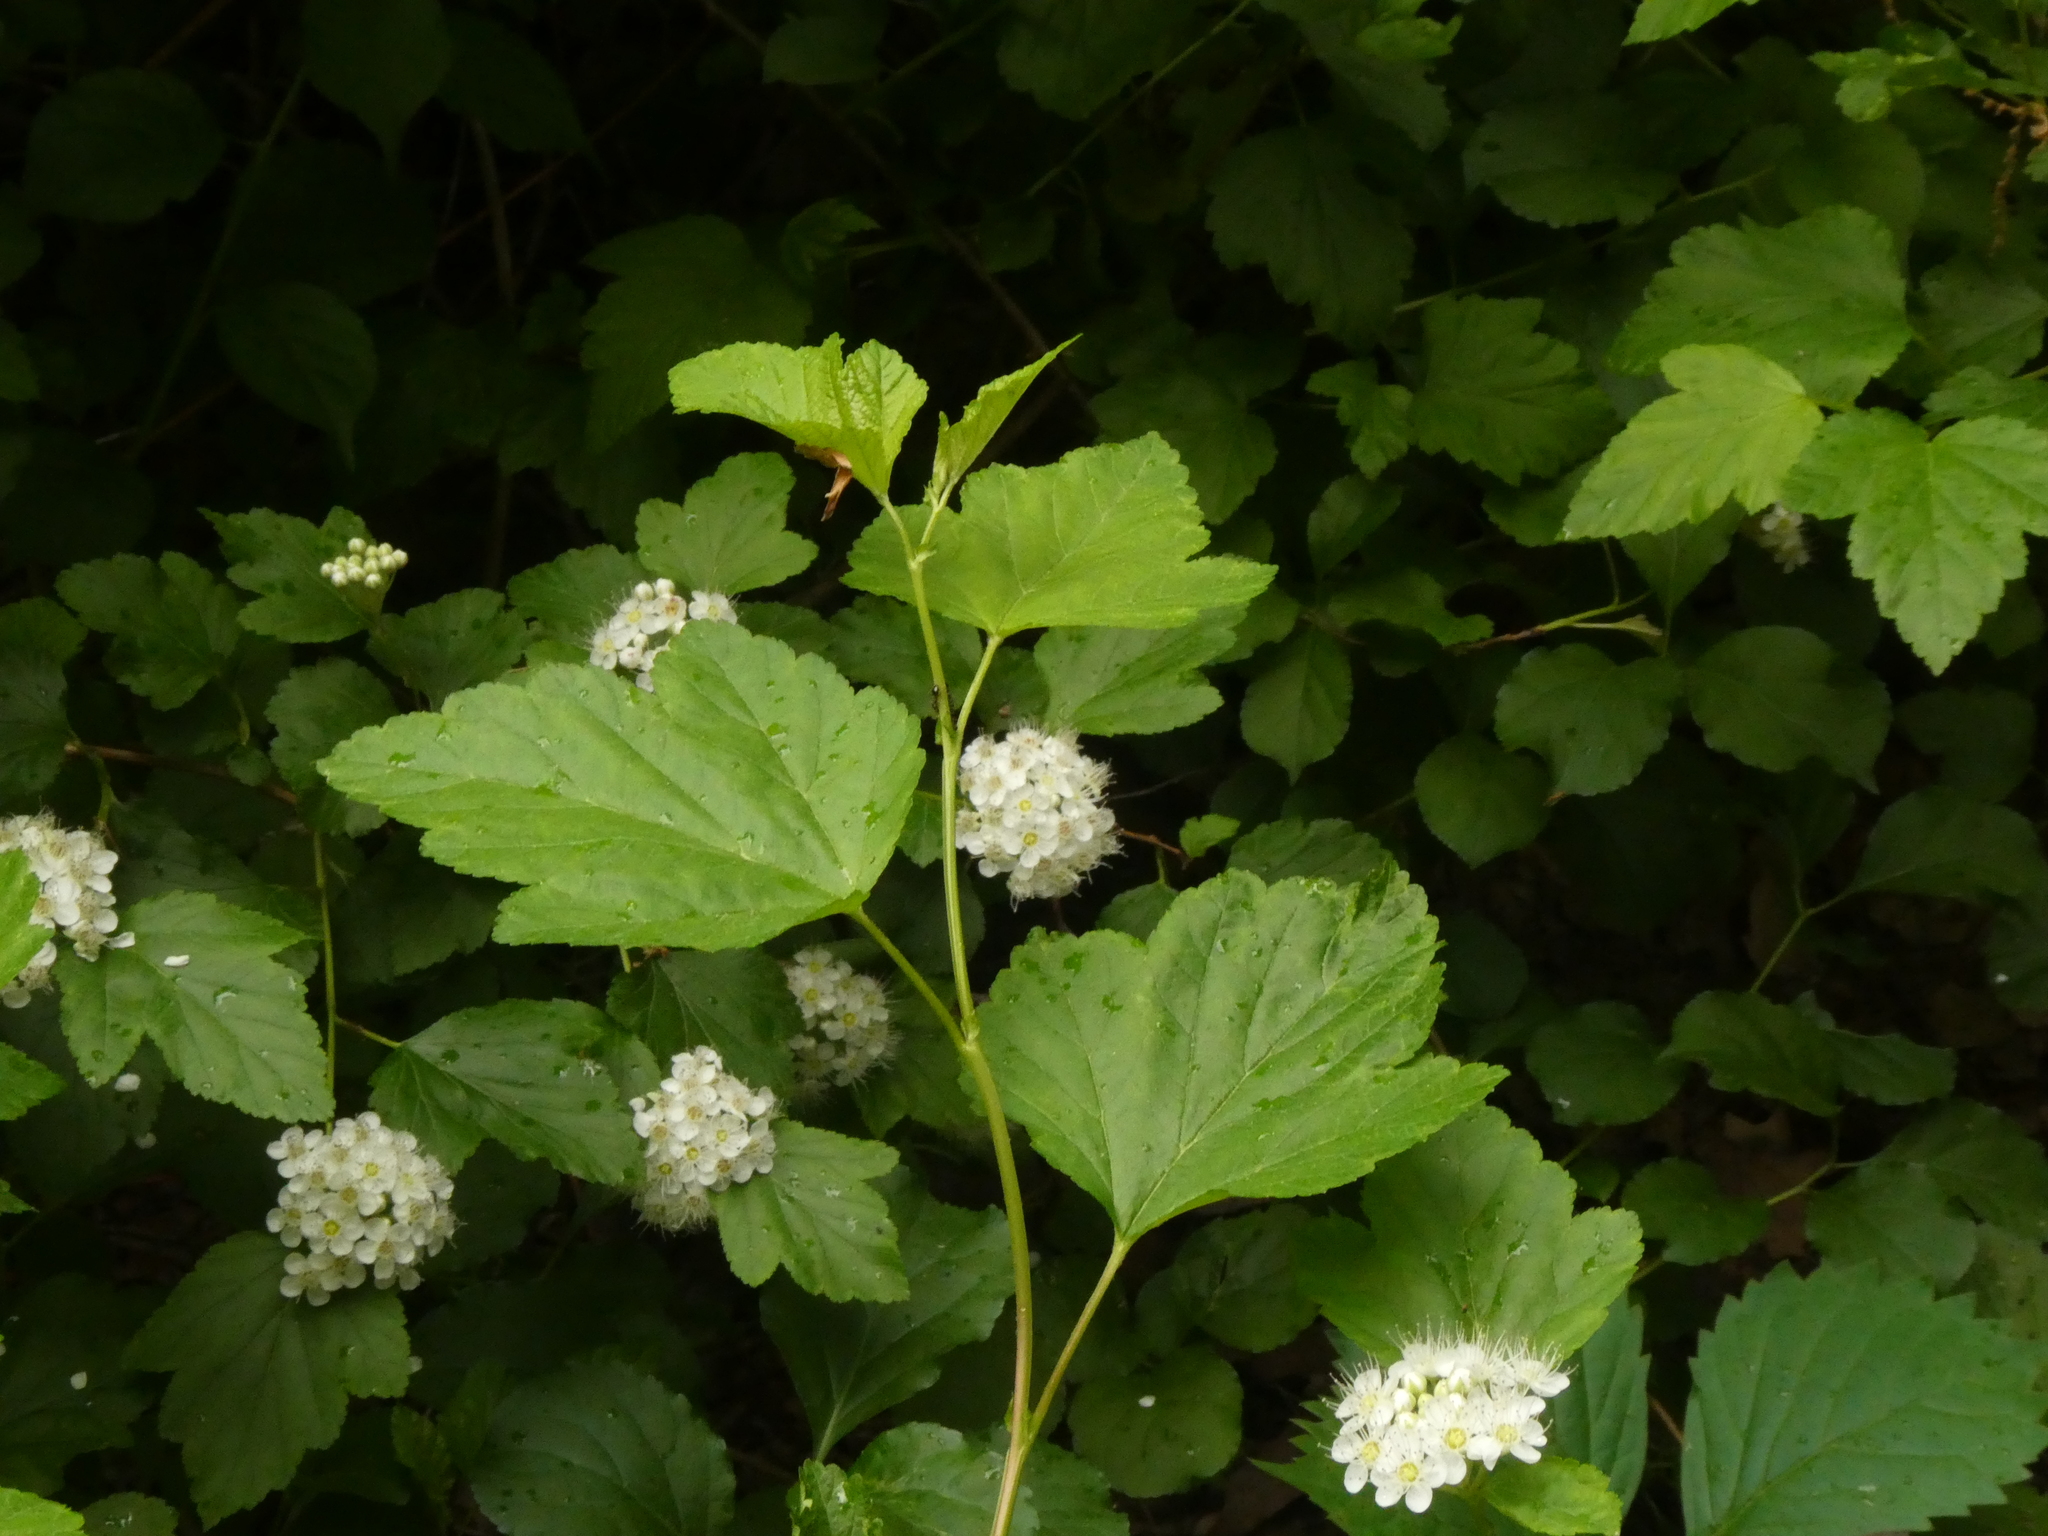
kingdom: Plantae
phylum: Tracheophyta
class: Magnoliopsida
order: Rosales
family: Rosaceae
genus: Physocarpus
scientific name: Physocarpus opulifolius
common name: Ninebark
